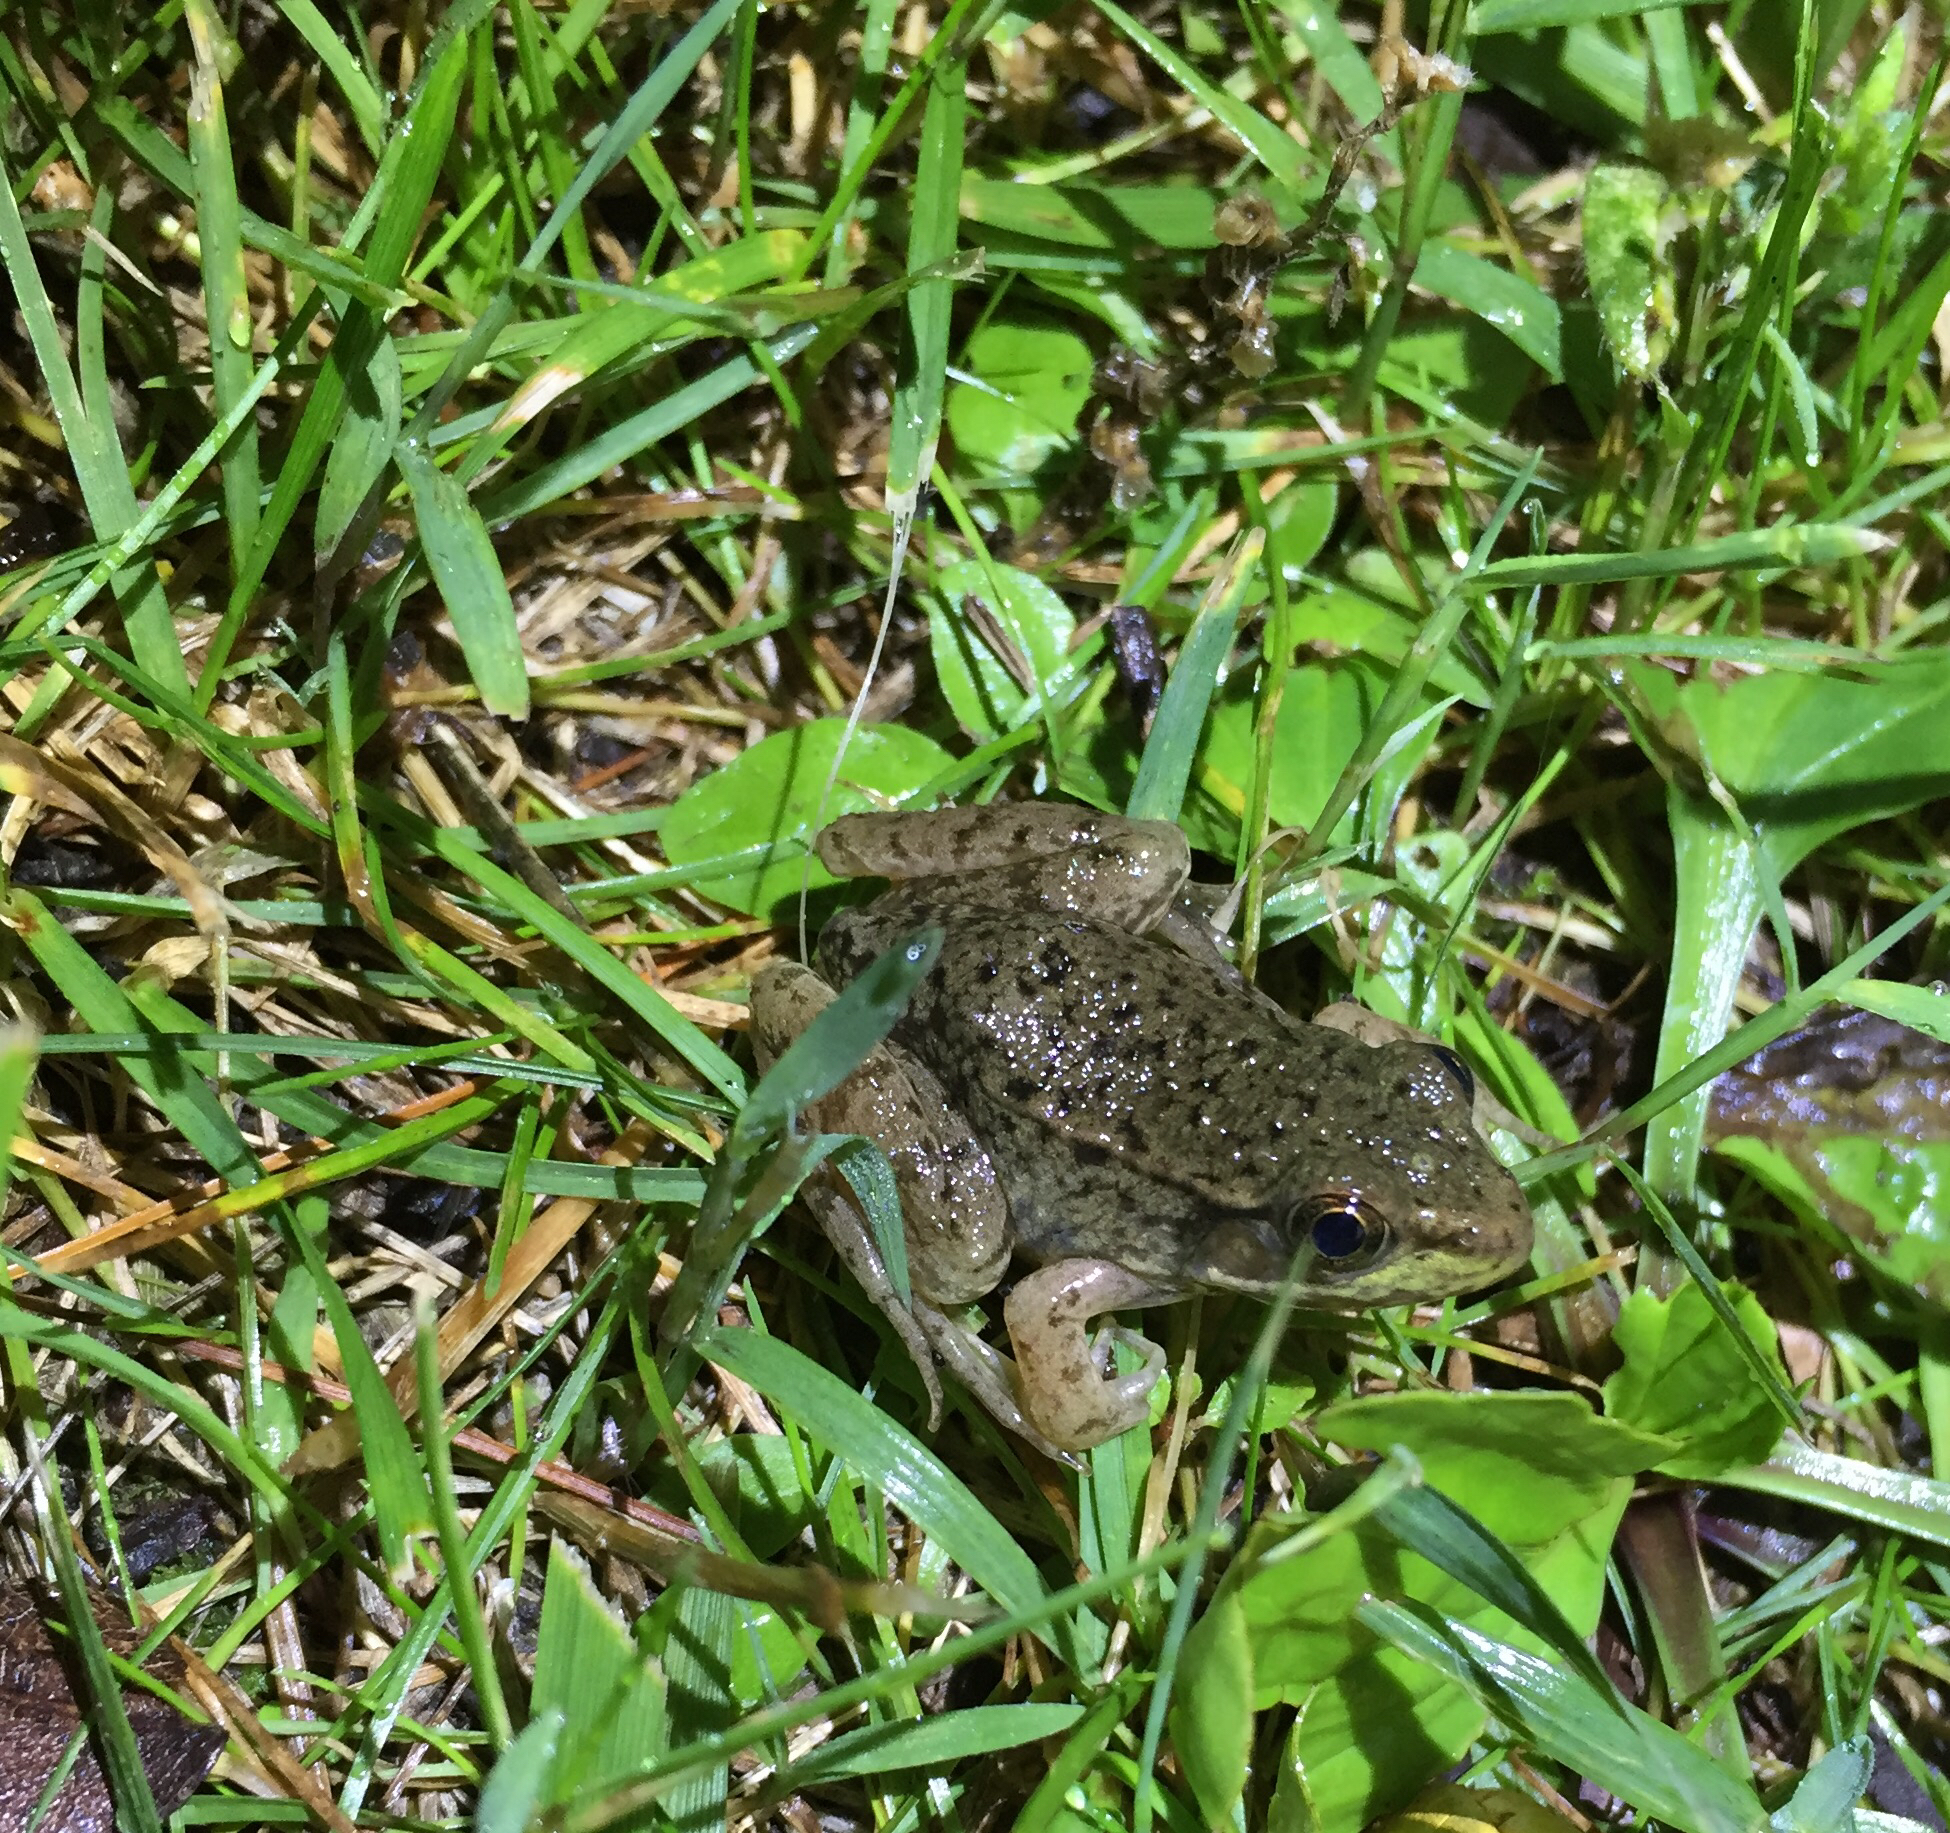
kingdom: Animalia
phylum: Chordata
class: Amphibia
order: Anura
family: Ranidae
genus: Lithobates
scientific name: Lithobates clamitans
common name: Green frog
